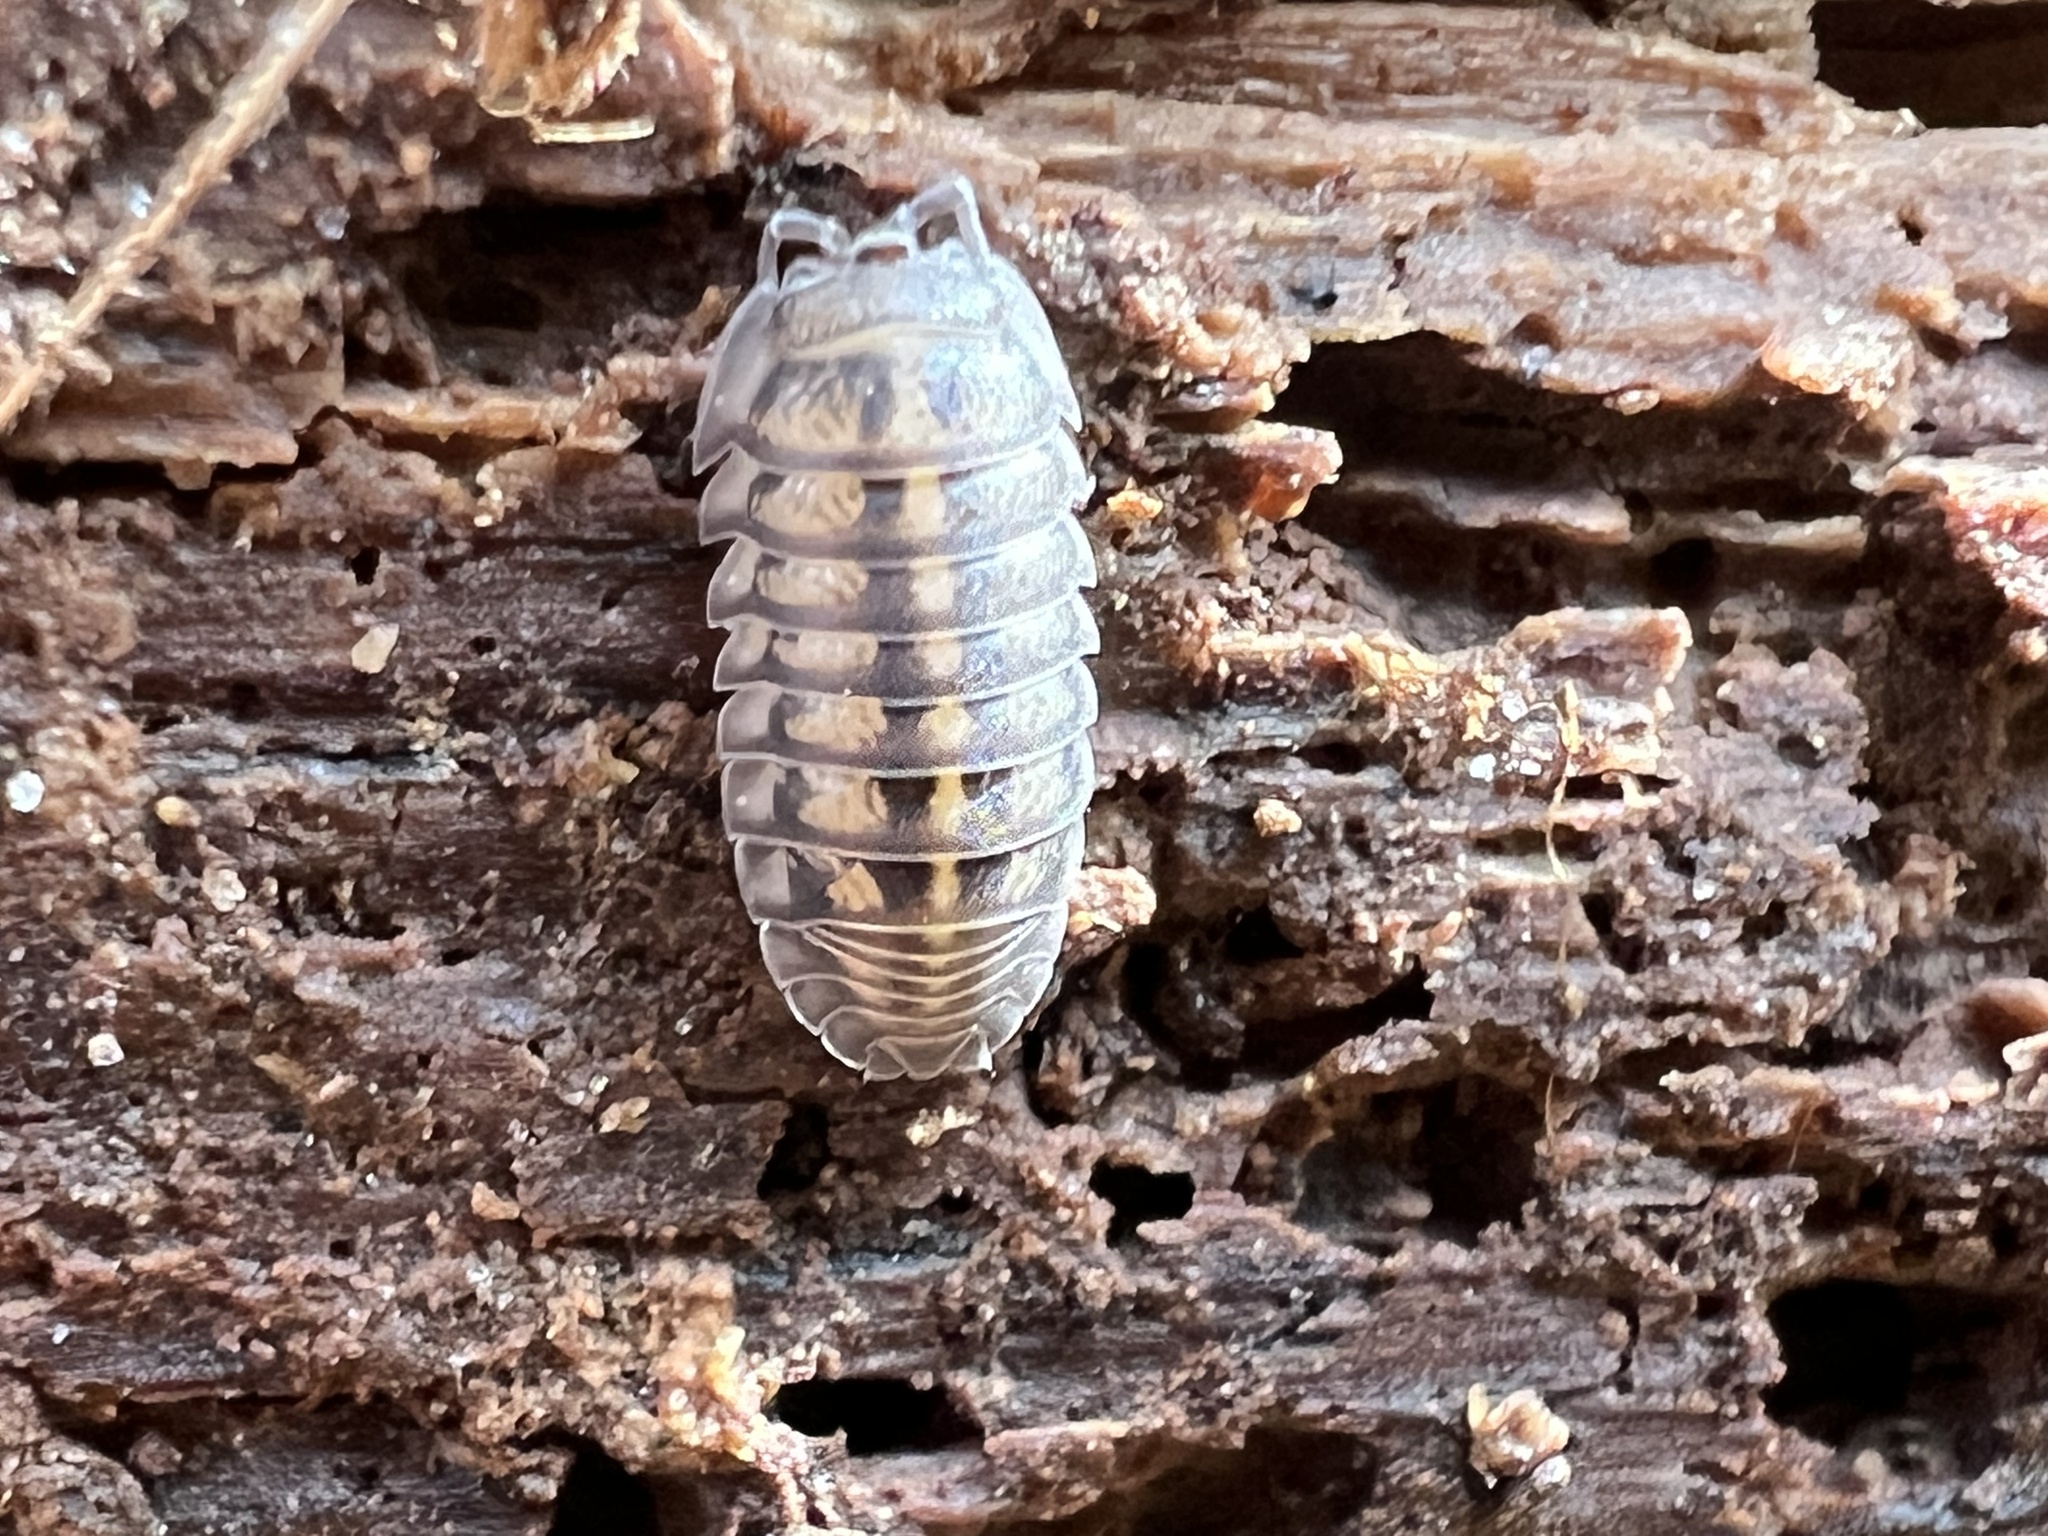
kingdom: Animalia
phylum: Arthropoda
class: Malacostraca
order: Isopoda
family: Armadillidiidae
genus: Armadillidium
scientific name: Armadillidium nasatum
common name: Isopod
